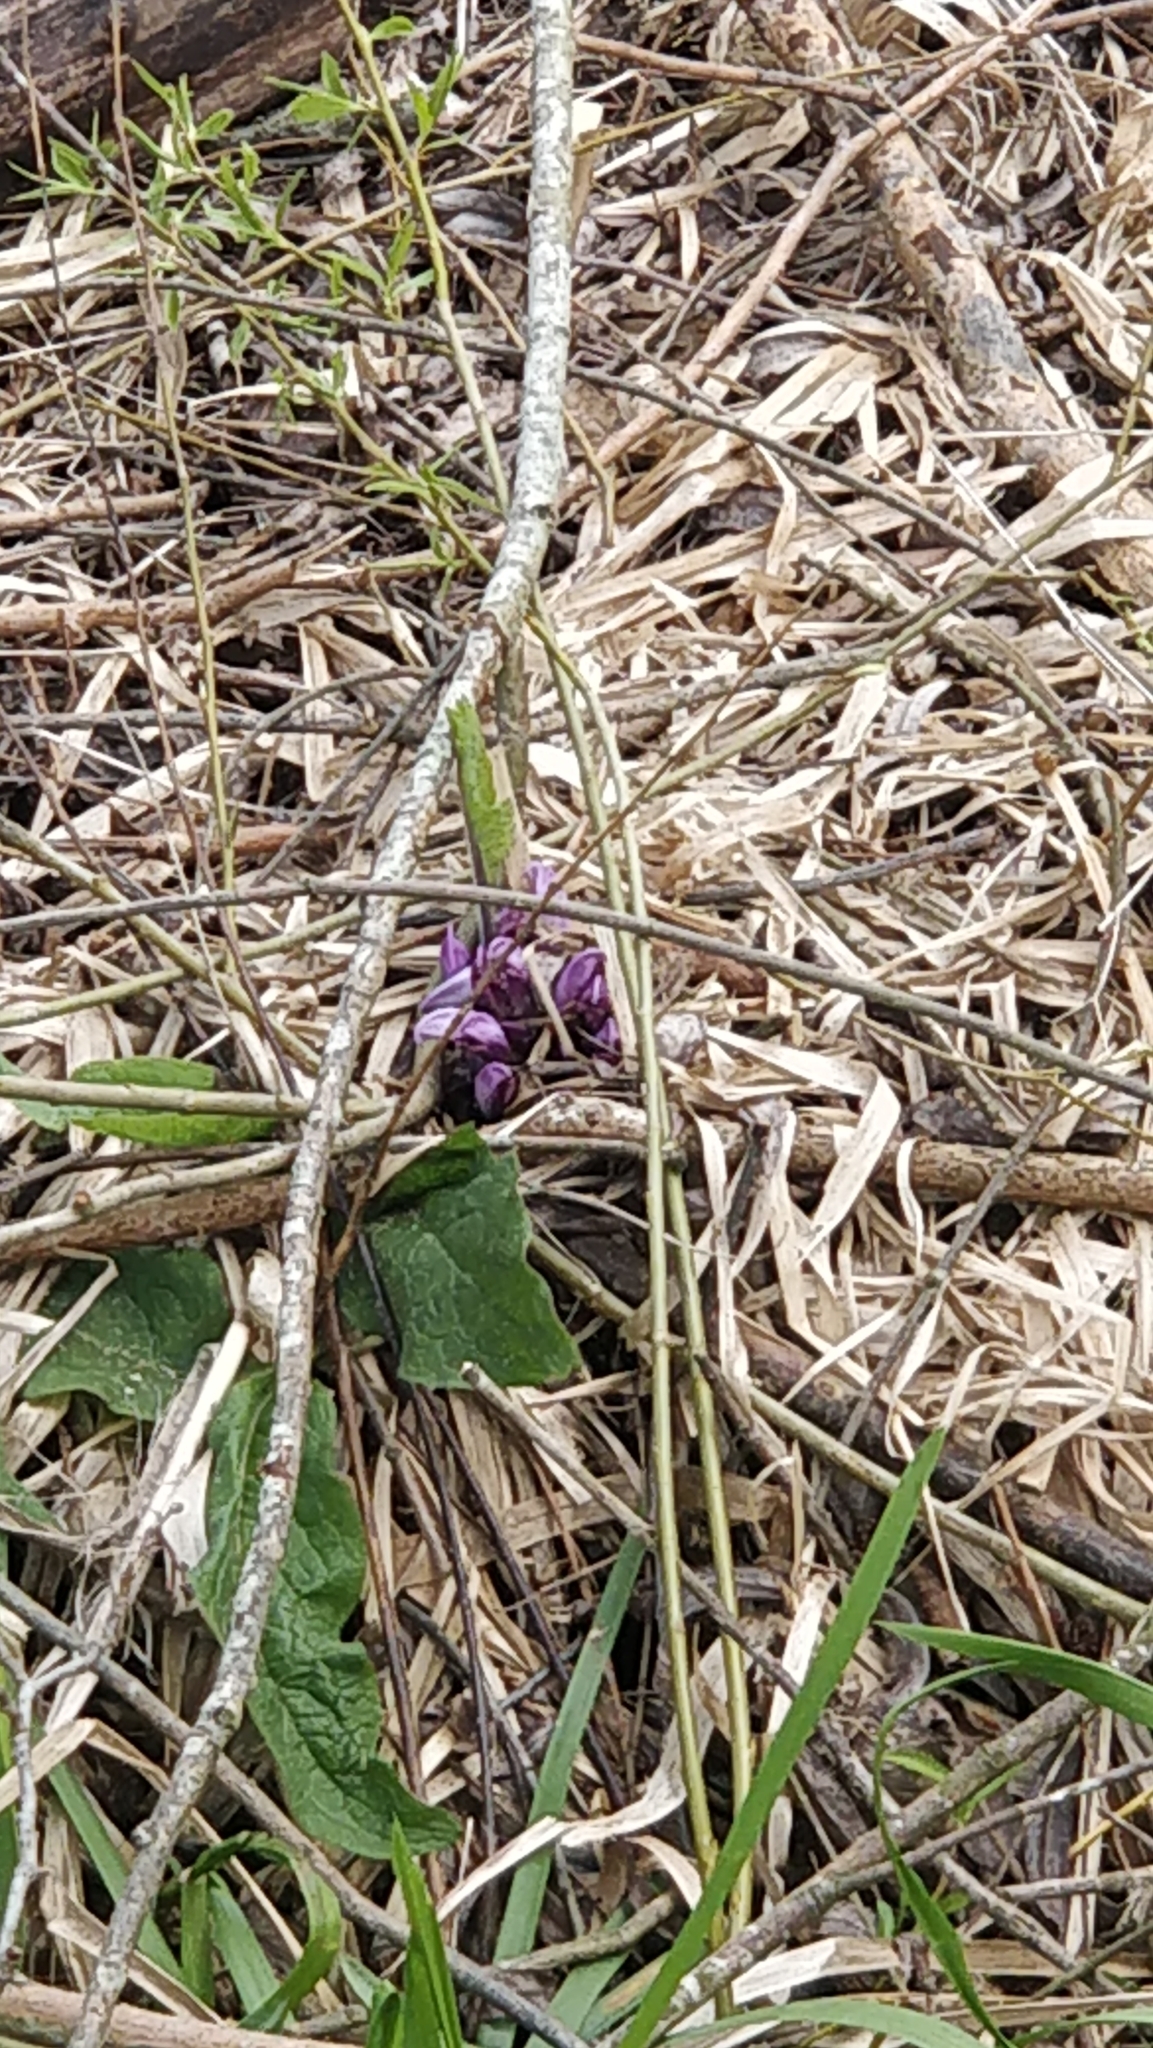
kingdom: Plantae
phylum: Tracheophyta
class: Magnoliopsida
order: Lamiales
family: Orobanchaceae
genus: Lathraea
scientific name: Lathraea clandestina
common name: Purple toothwort
